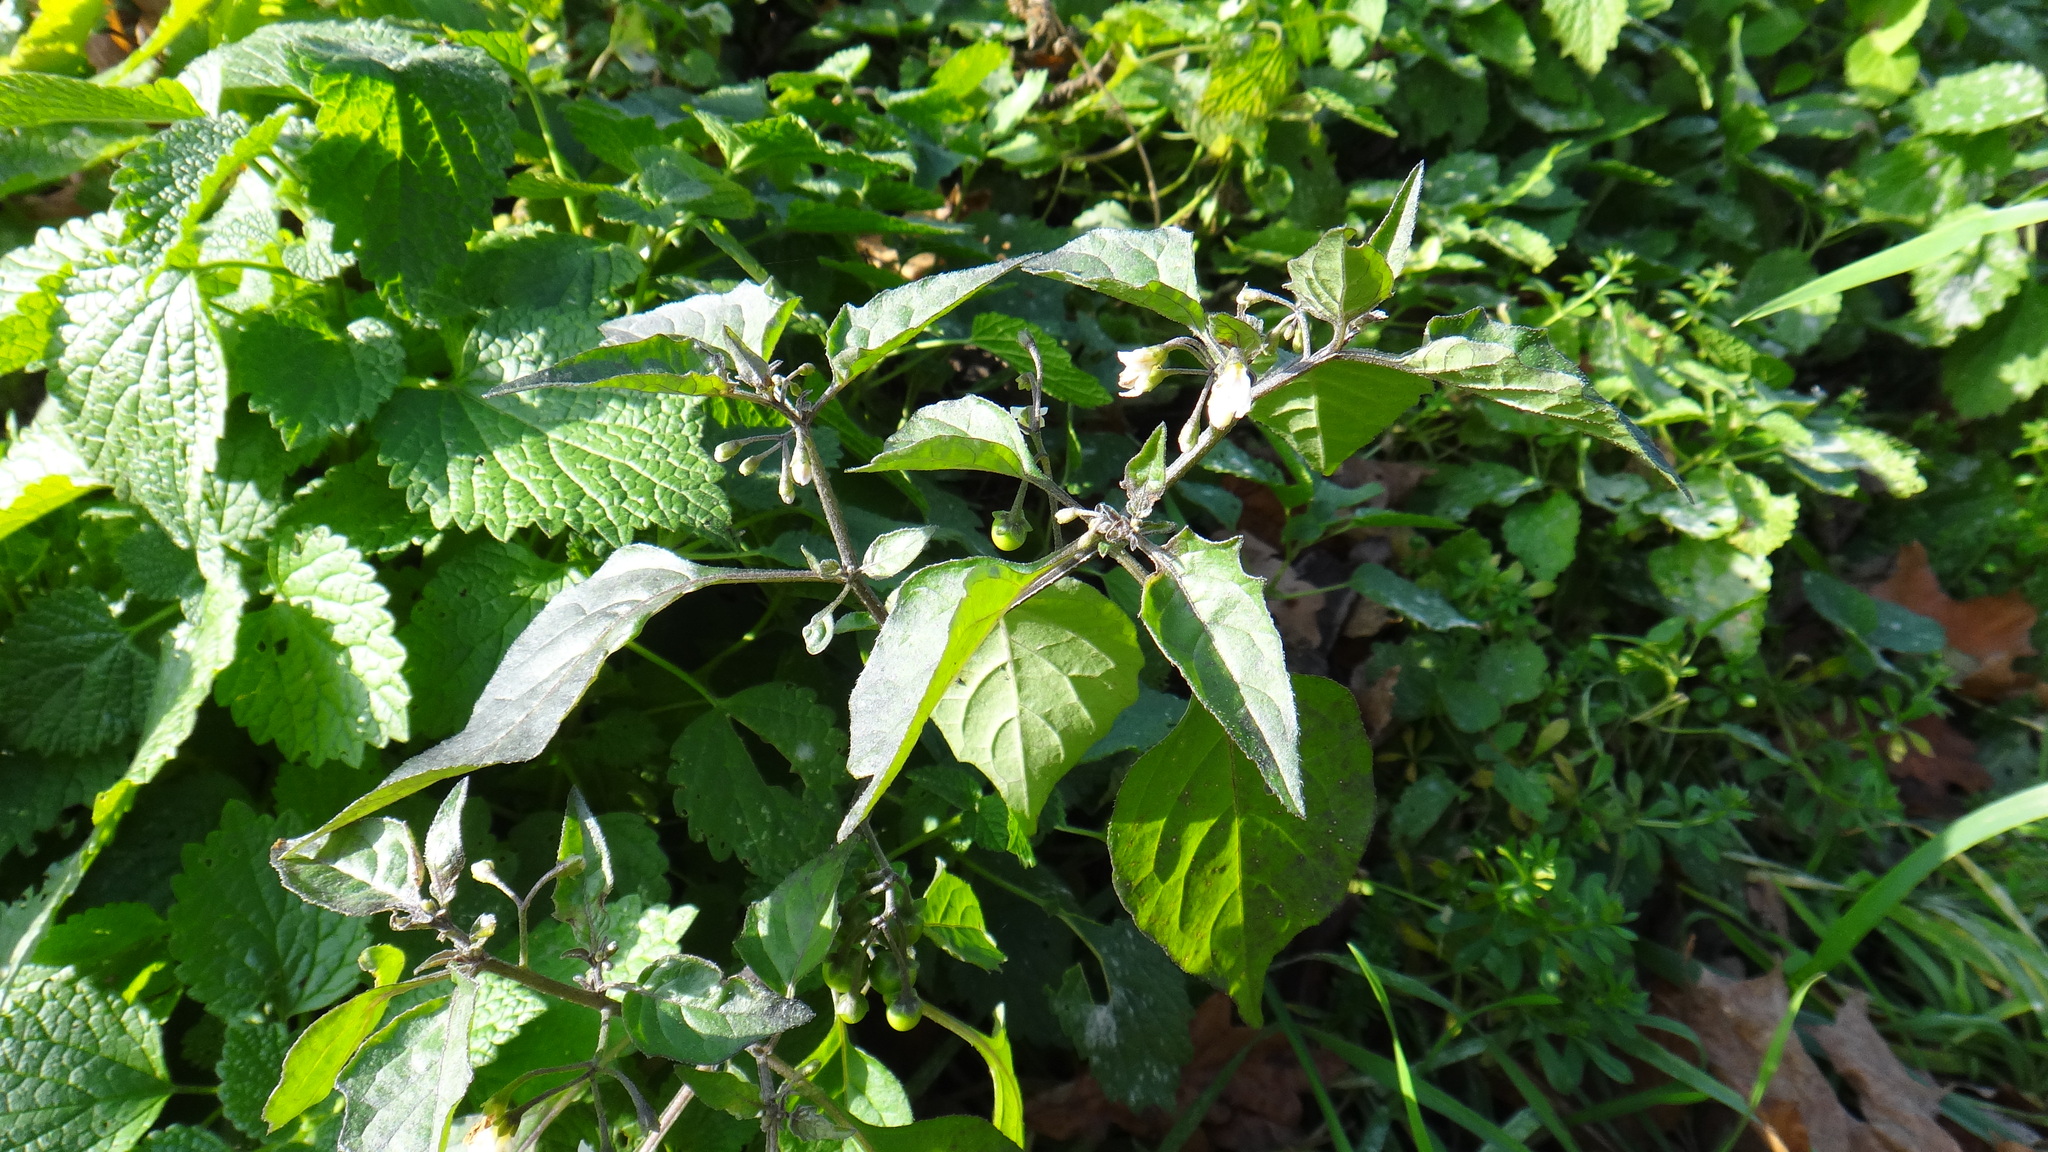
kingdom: Plantae
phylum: Tracheophyta
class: Magnoliopsida
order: Solanales
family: Solanaceae
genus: Solanum
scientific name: Solanum nigrum
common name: Black nightshade
